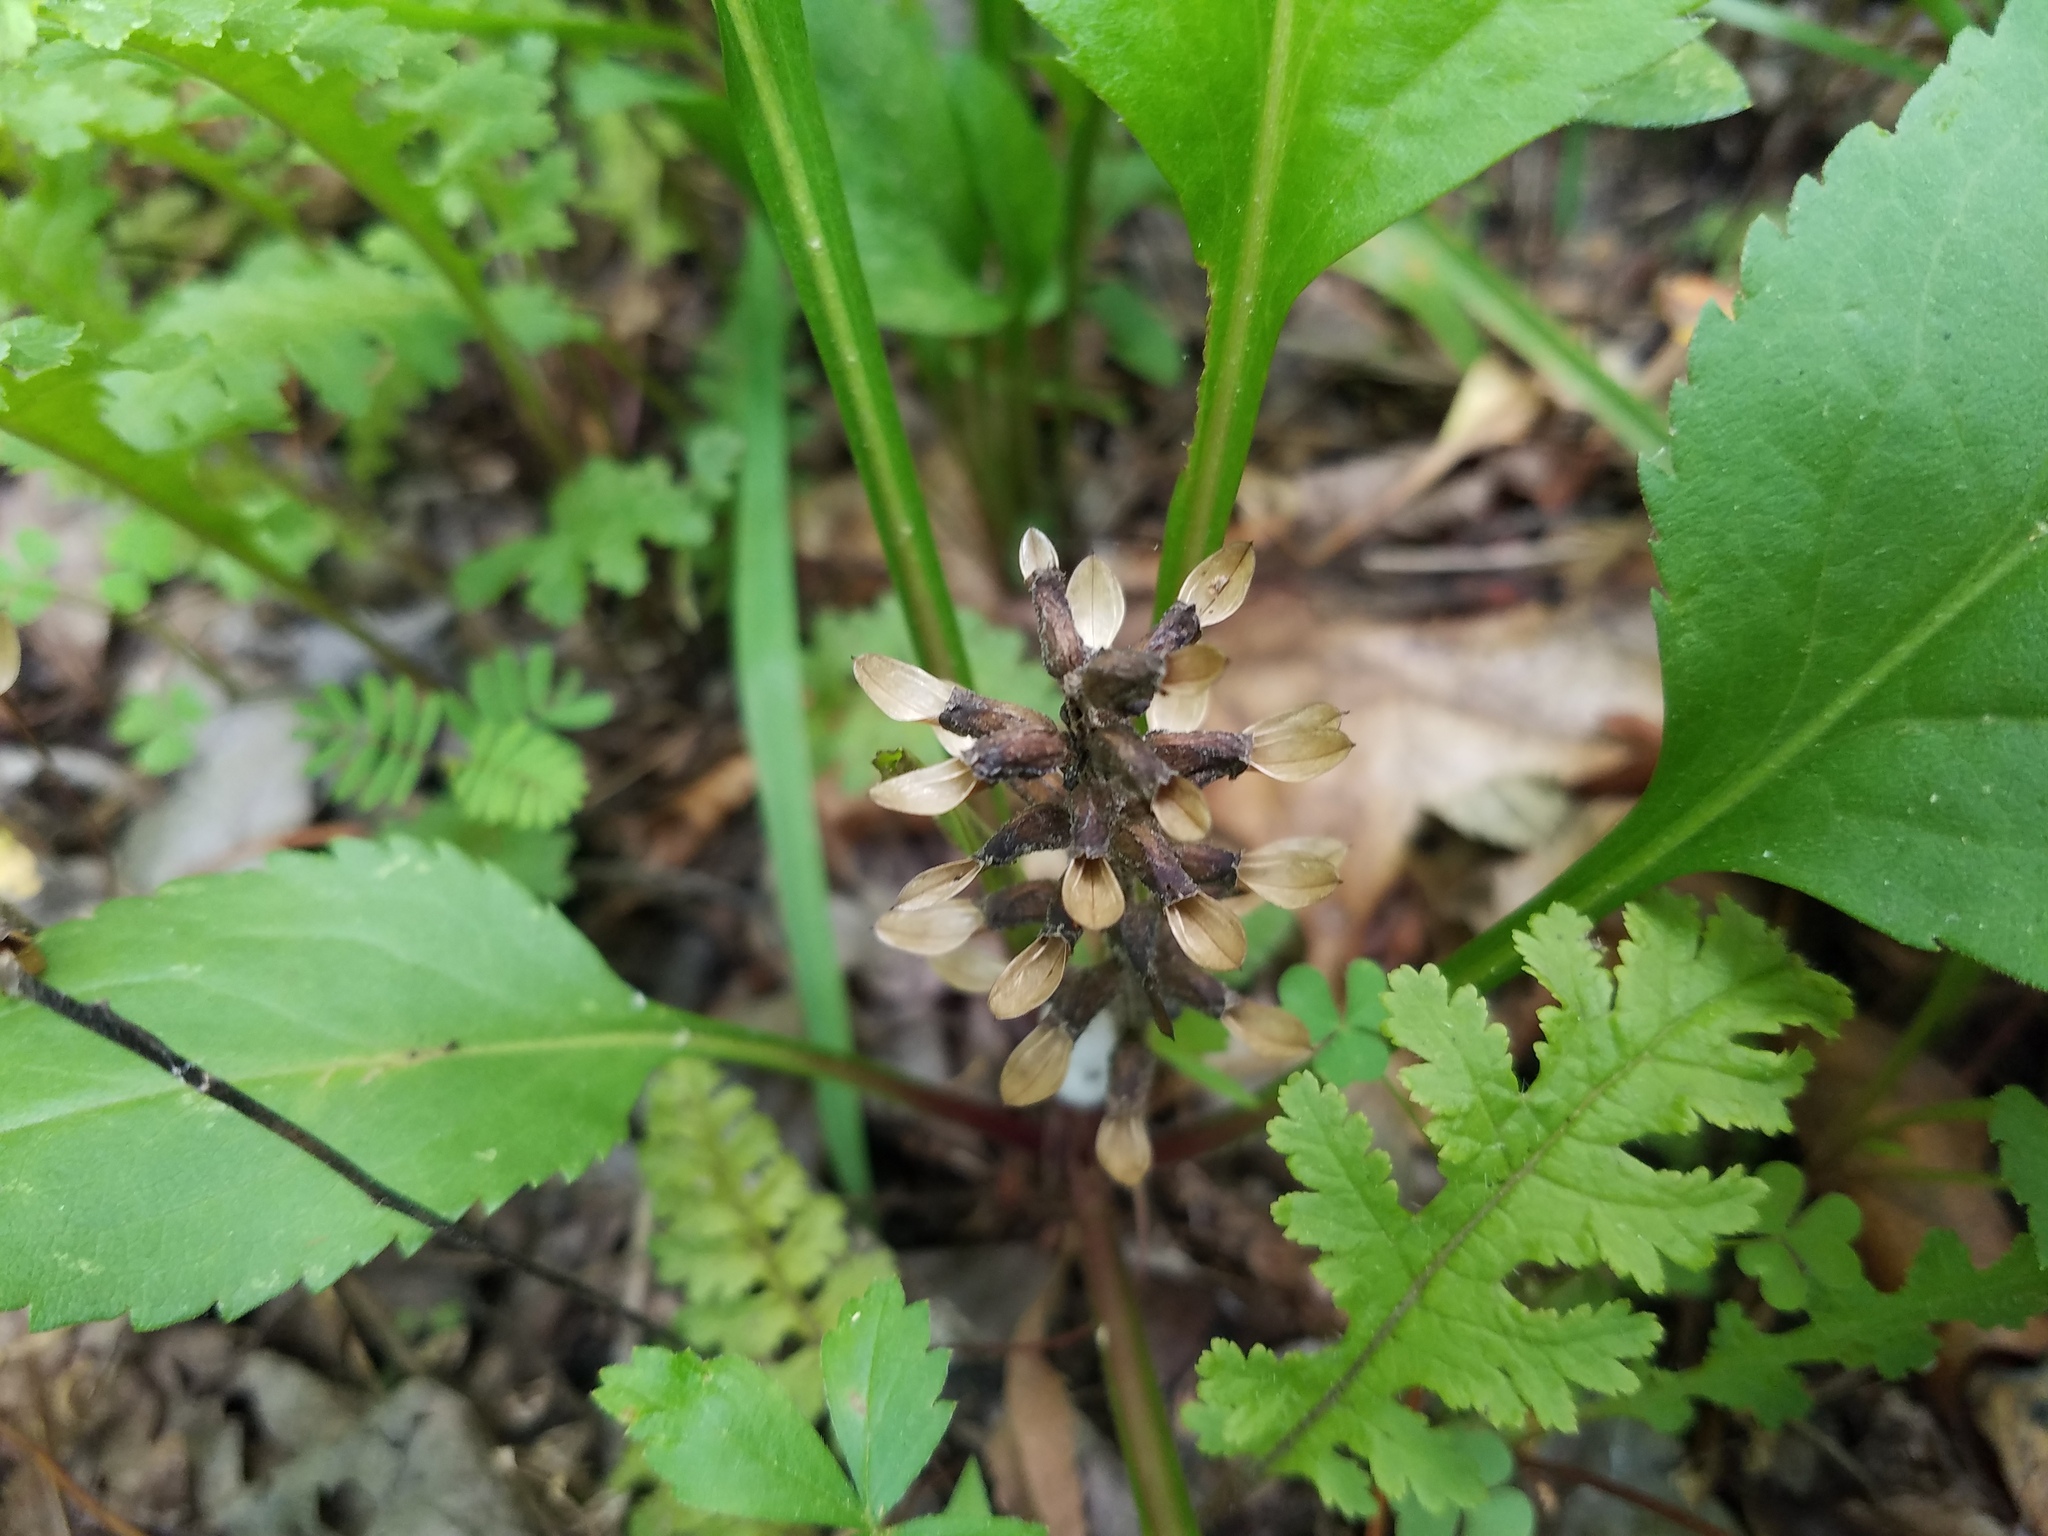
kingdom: Plantae
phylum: Tracheophyta
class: Magnoliopsida
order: Lamiales
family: Orobanchaceae
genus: Pedicularis
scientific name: Pedicularis canadensis
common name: Early lousewort
